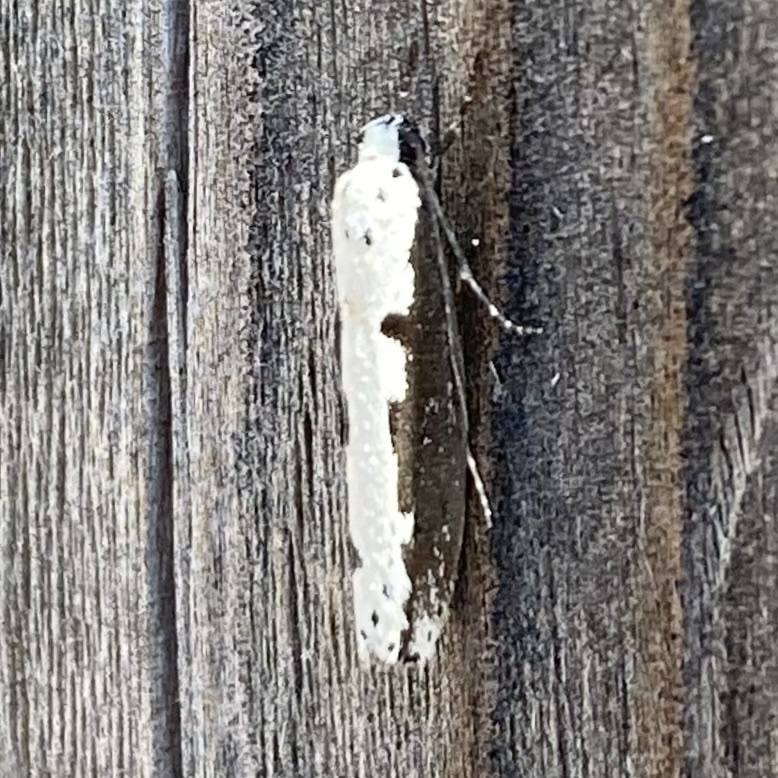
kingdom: Animalia
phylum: Arthropoda
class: Insecta
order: Lepidoptera
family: Ethmiidae
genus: Ethmia
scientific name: Ethmia bipunctella
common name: Bordered ermel
